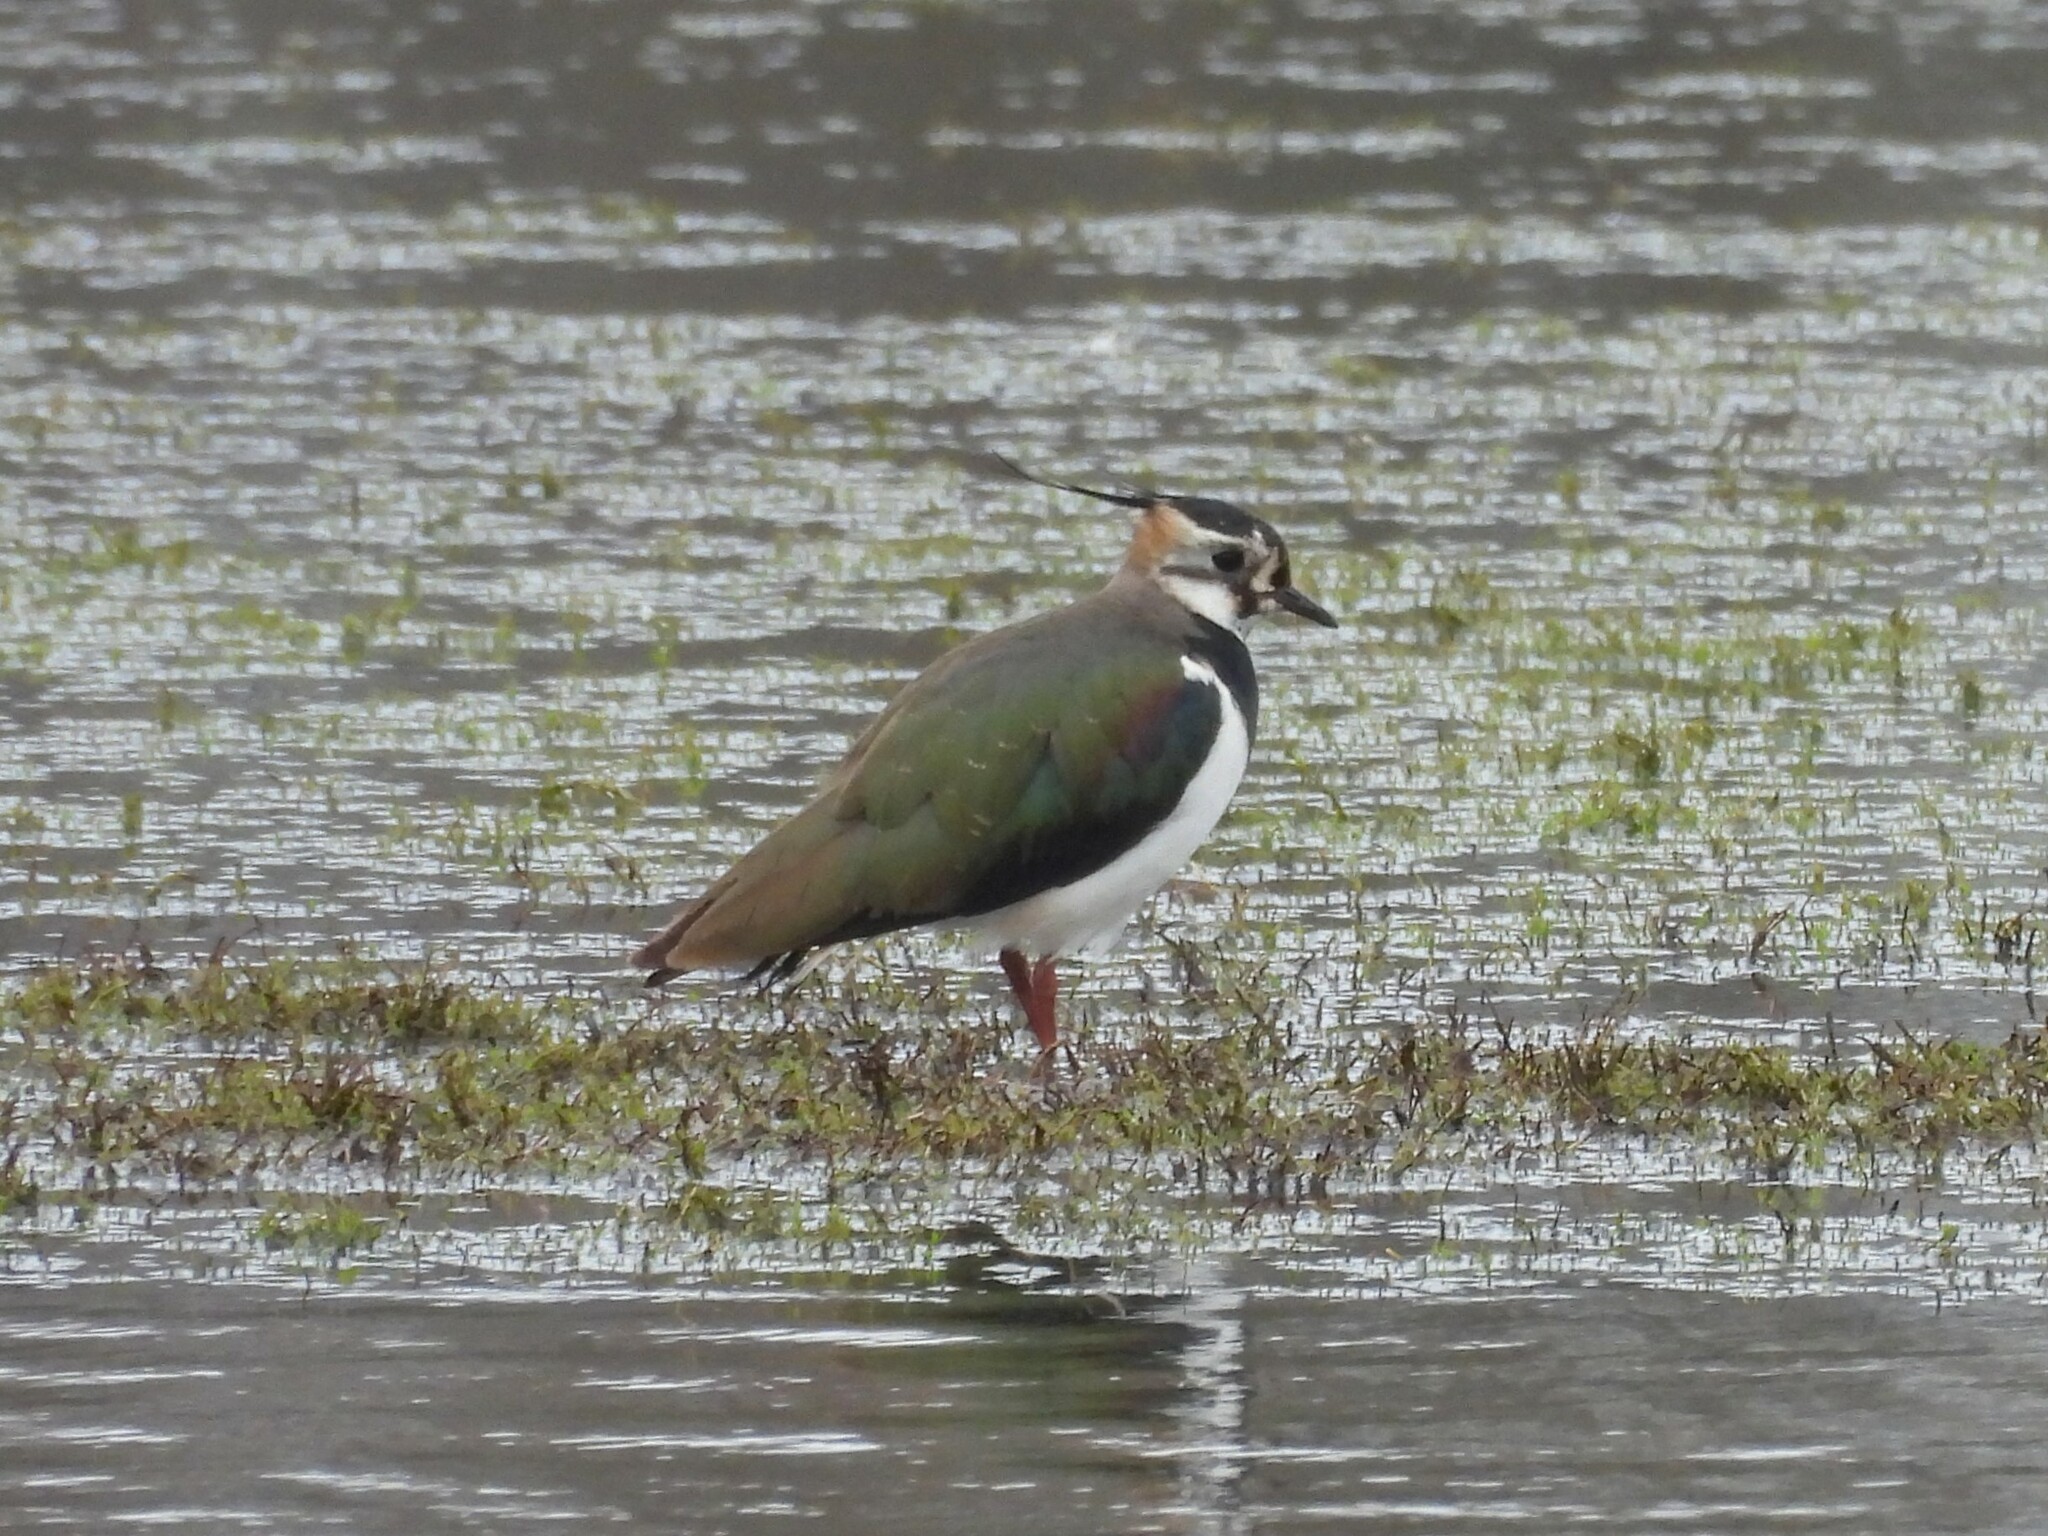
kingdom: Animalia
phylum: Chordata
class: Aves
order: Charadriiformes
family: Charadriidae
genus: Vanellus
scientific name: Vanellus vanellus
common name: Northern lapwing
